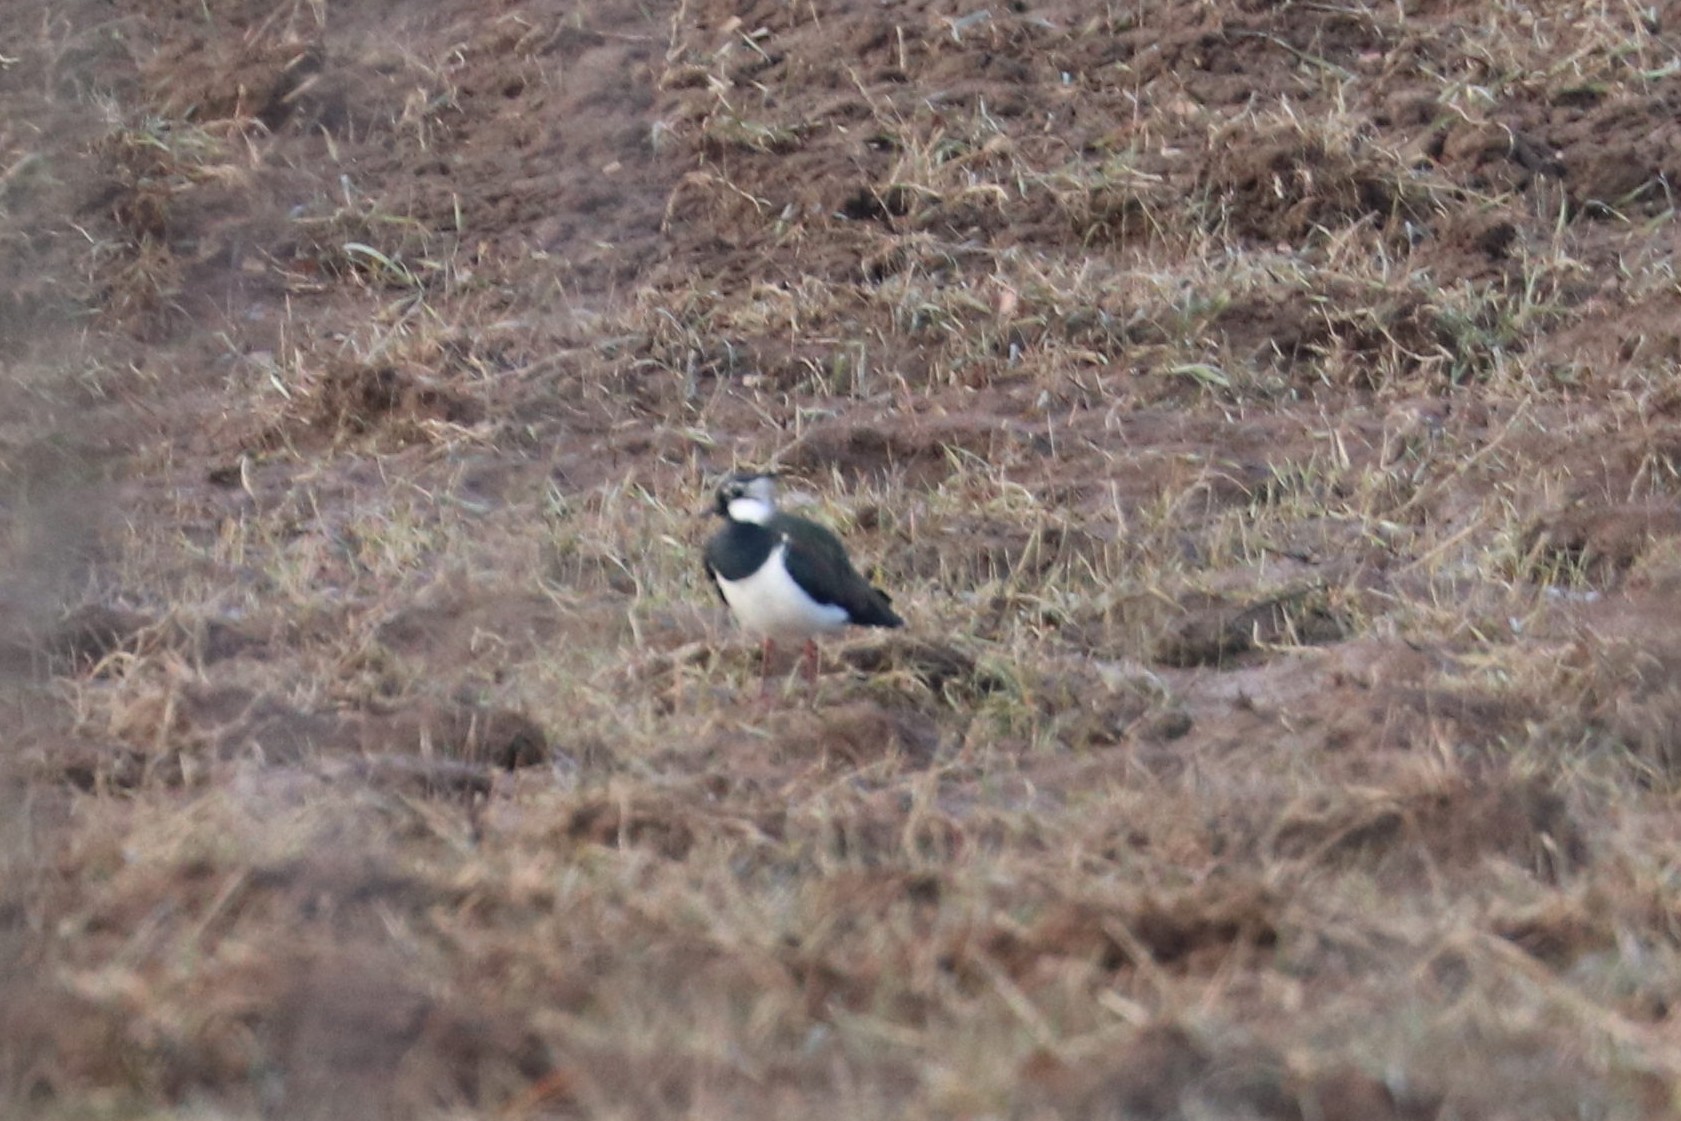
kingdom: Animalia
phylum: Chordata
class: Aves
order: Charadriiformes
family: Charadriidae
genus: Vanellus
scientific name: Vanellus vanellus
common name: Northern lapwing
